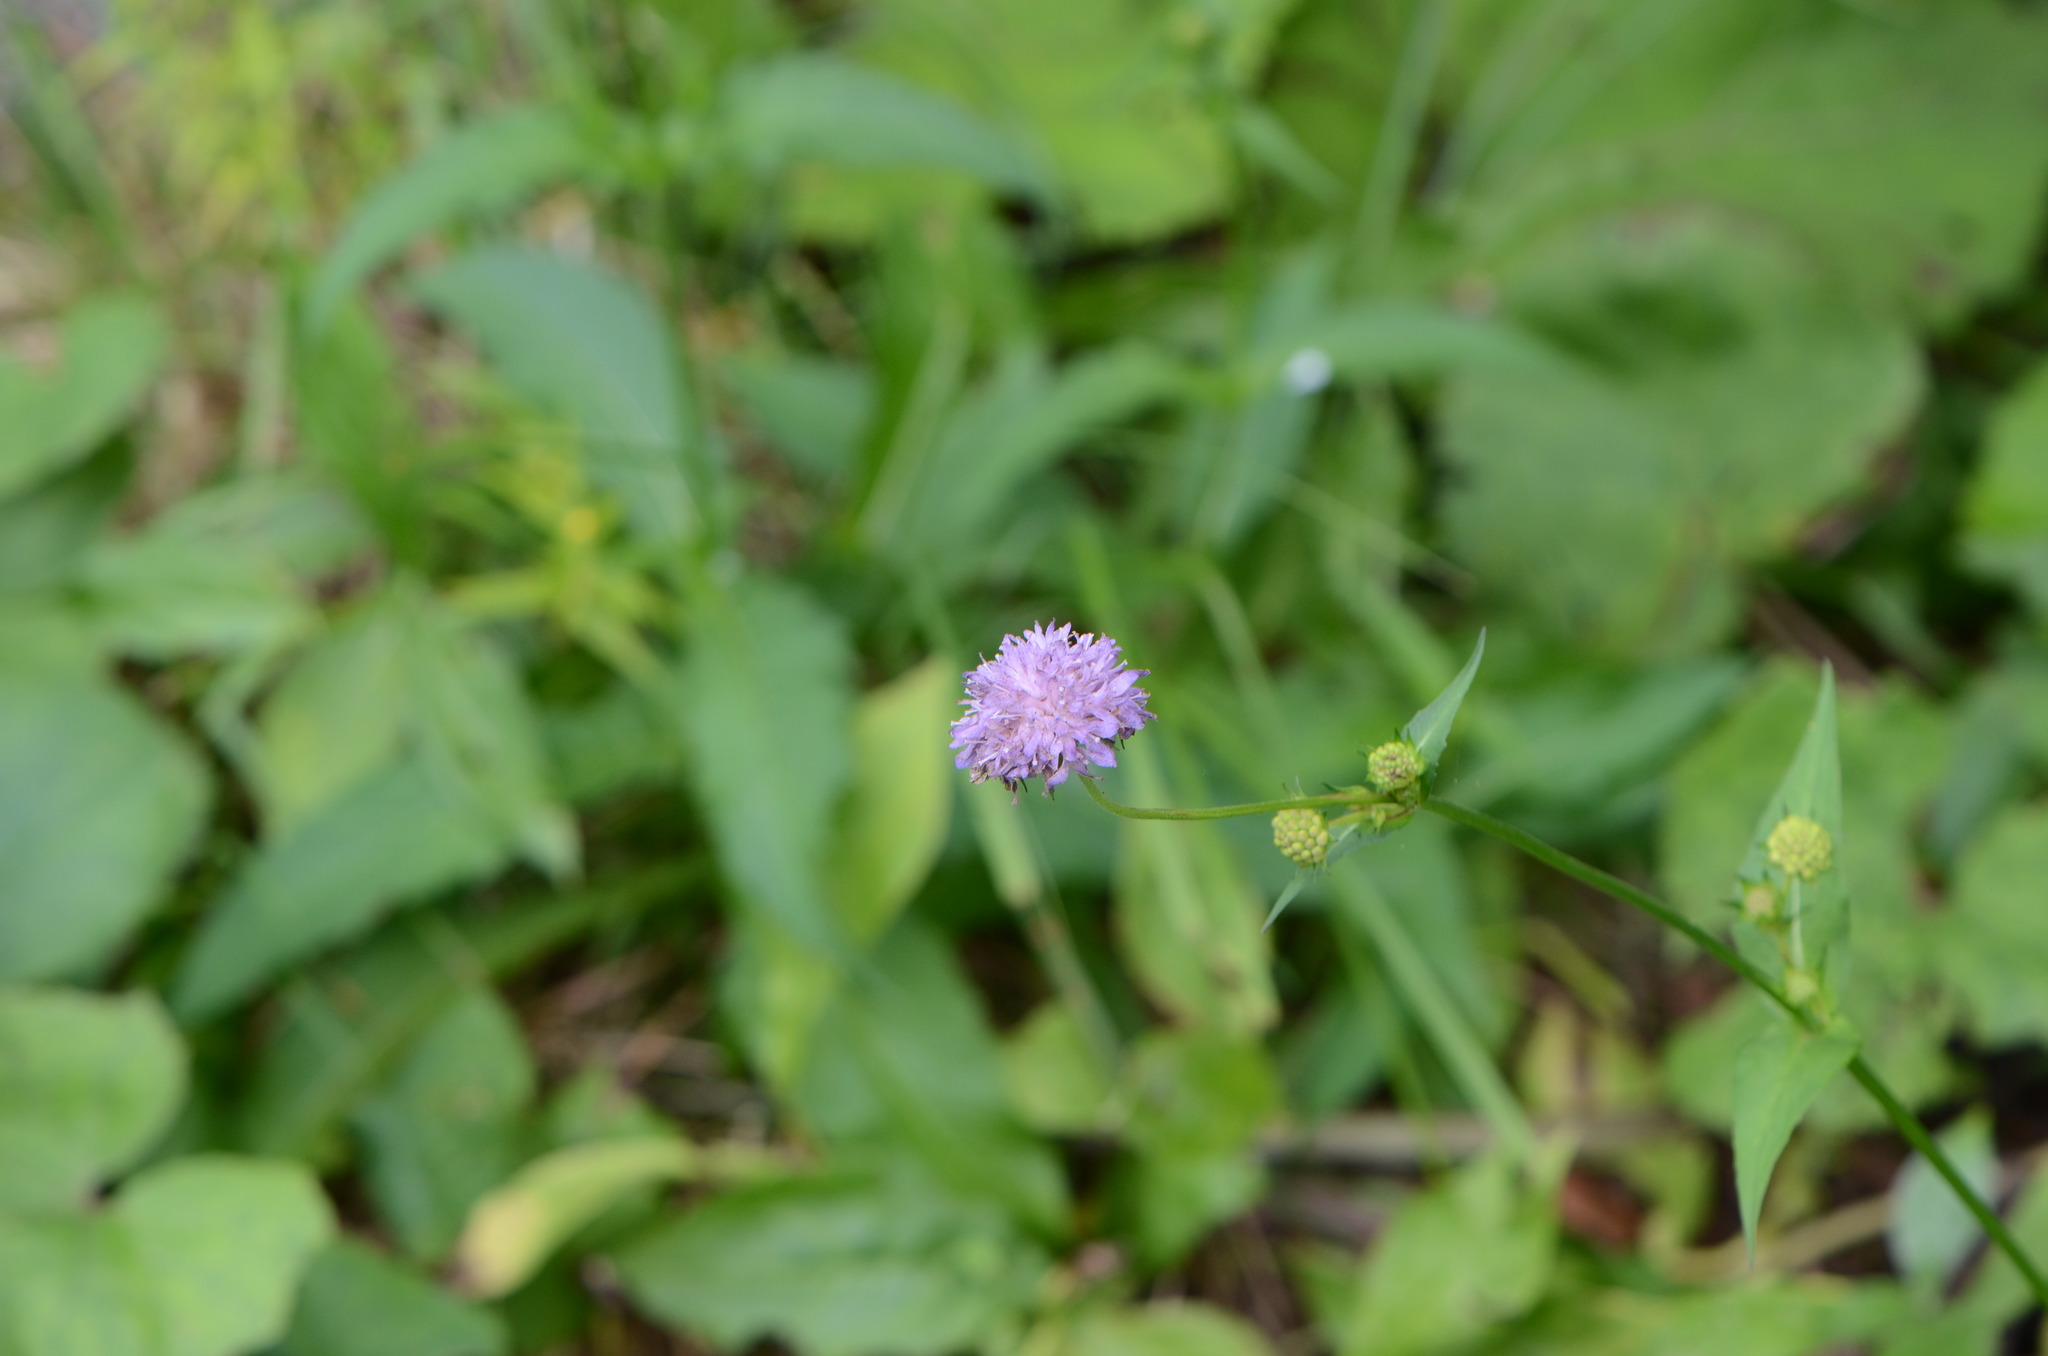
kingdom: Plantae
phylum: Tracheophyta
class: Magnoliopsida
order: Dipsacales
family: Caprifoliaceae
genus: Knautia
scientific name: Knautia dipsacifolia
